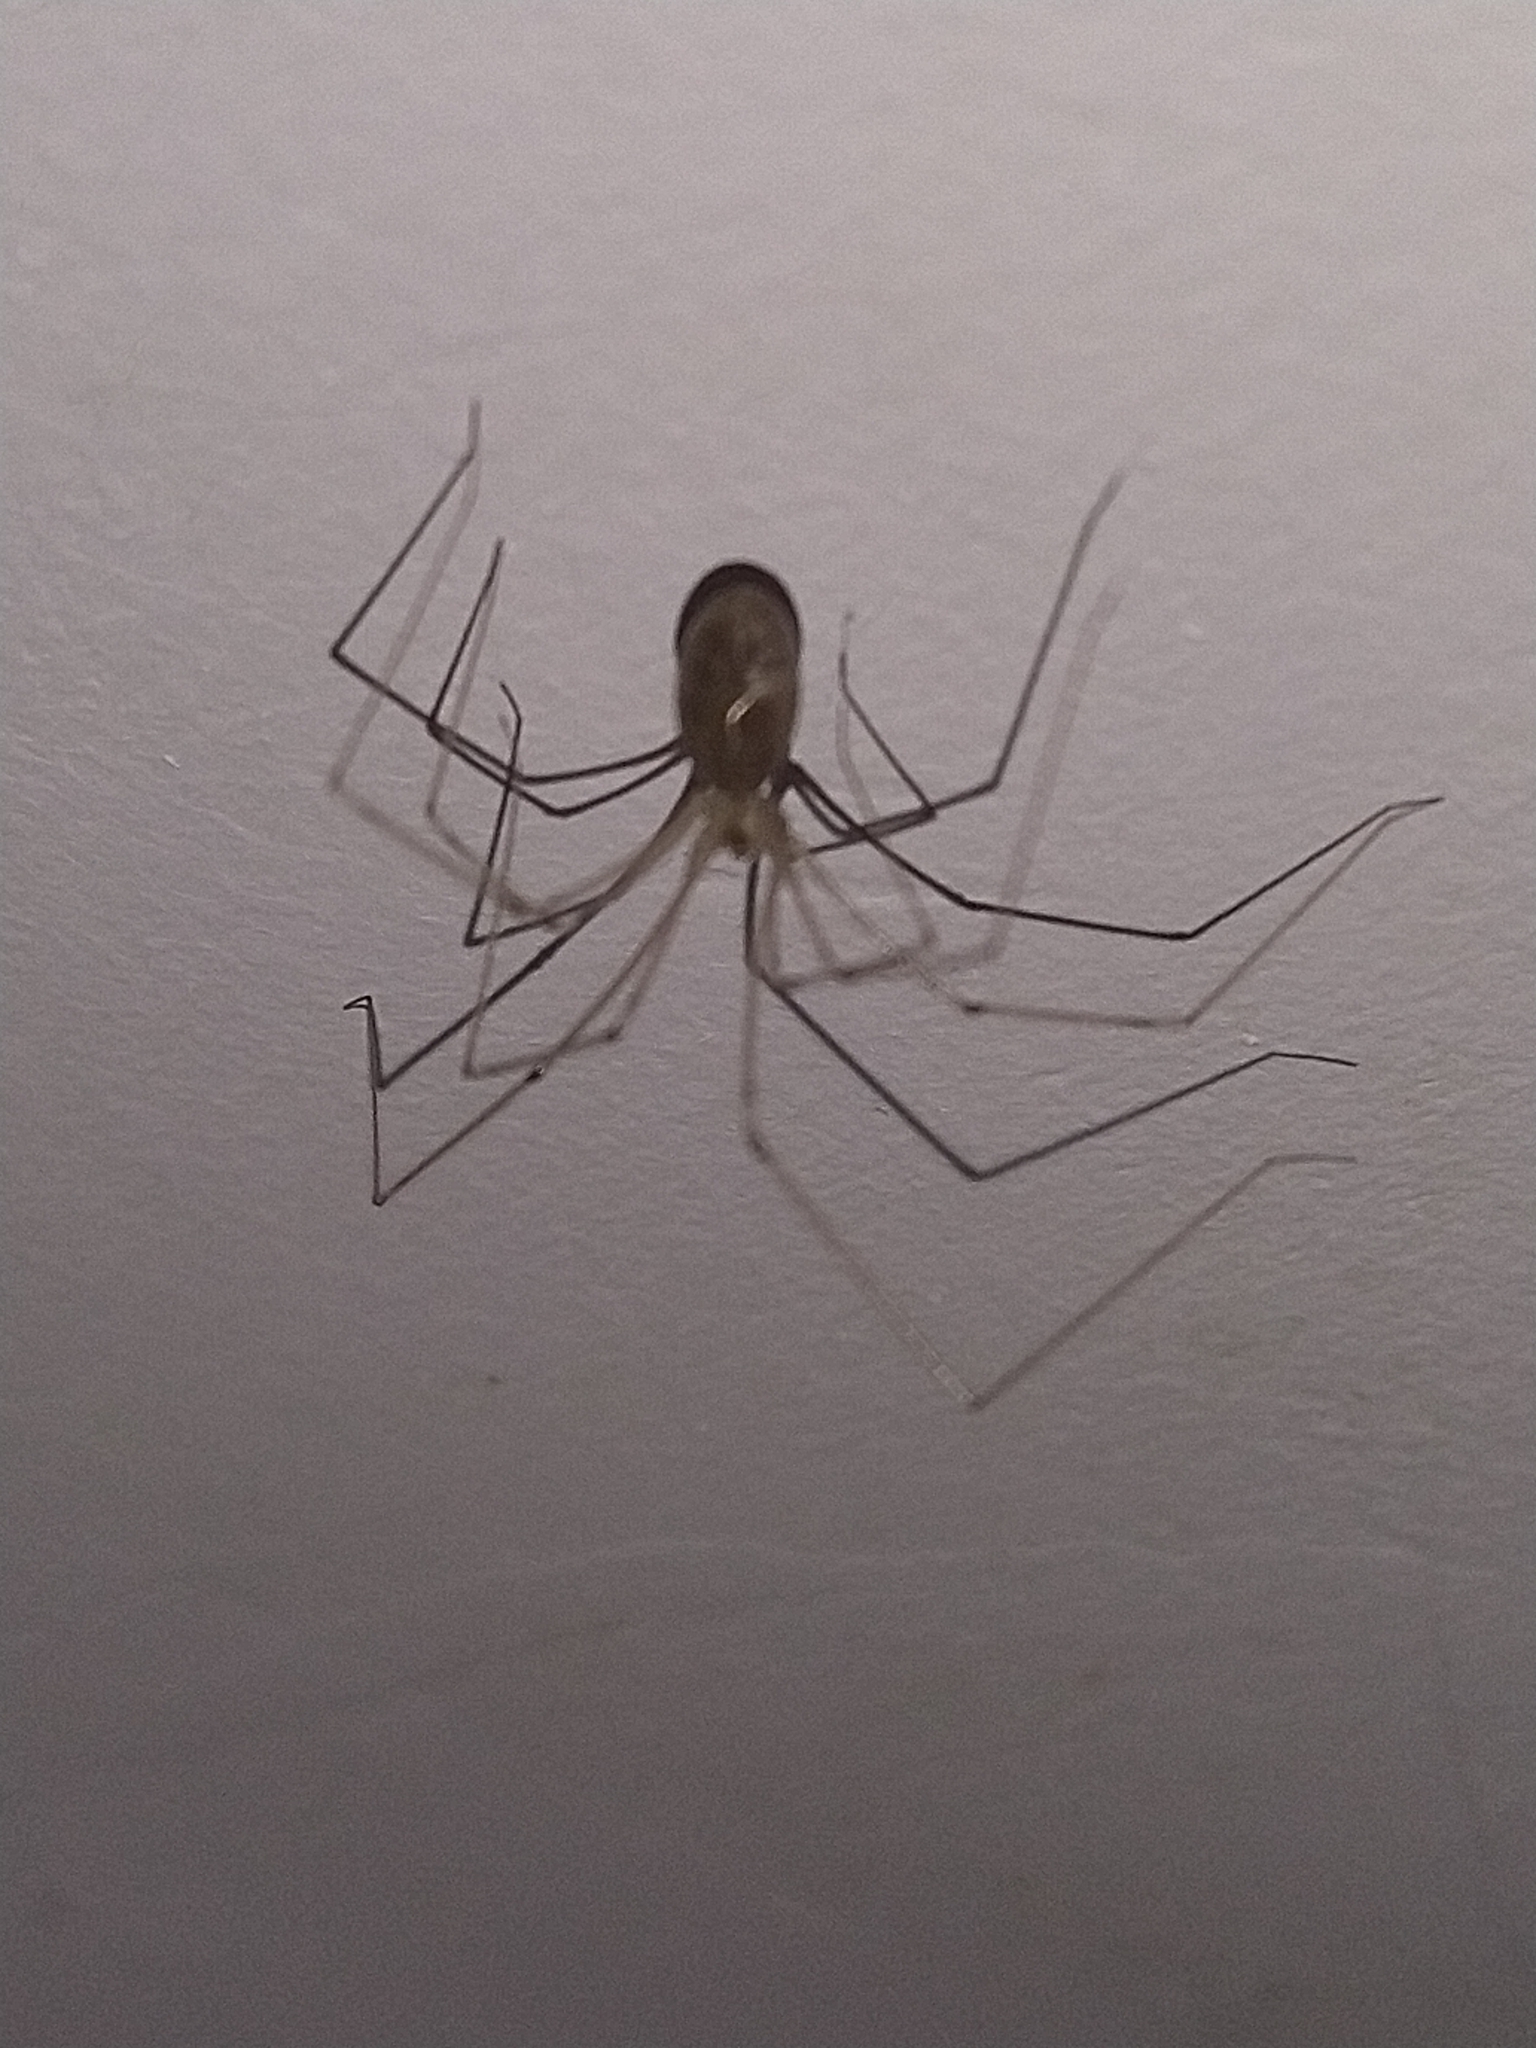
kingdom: Animalia
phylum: Arthropoda
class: Arachnida
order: Araneae
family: Pholcidae
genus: Pholcus
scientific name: Pholcus phalangioides
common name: Longbodied cellar spider
